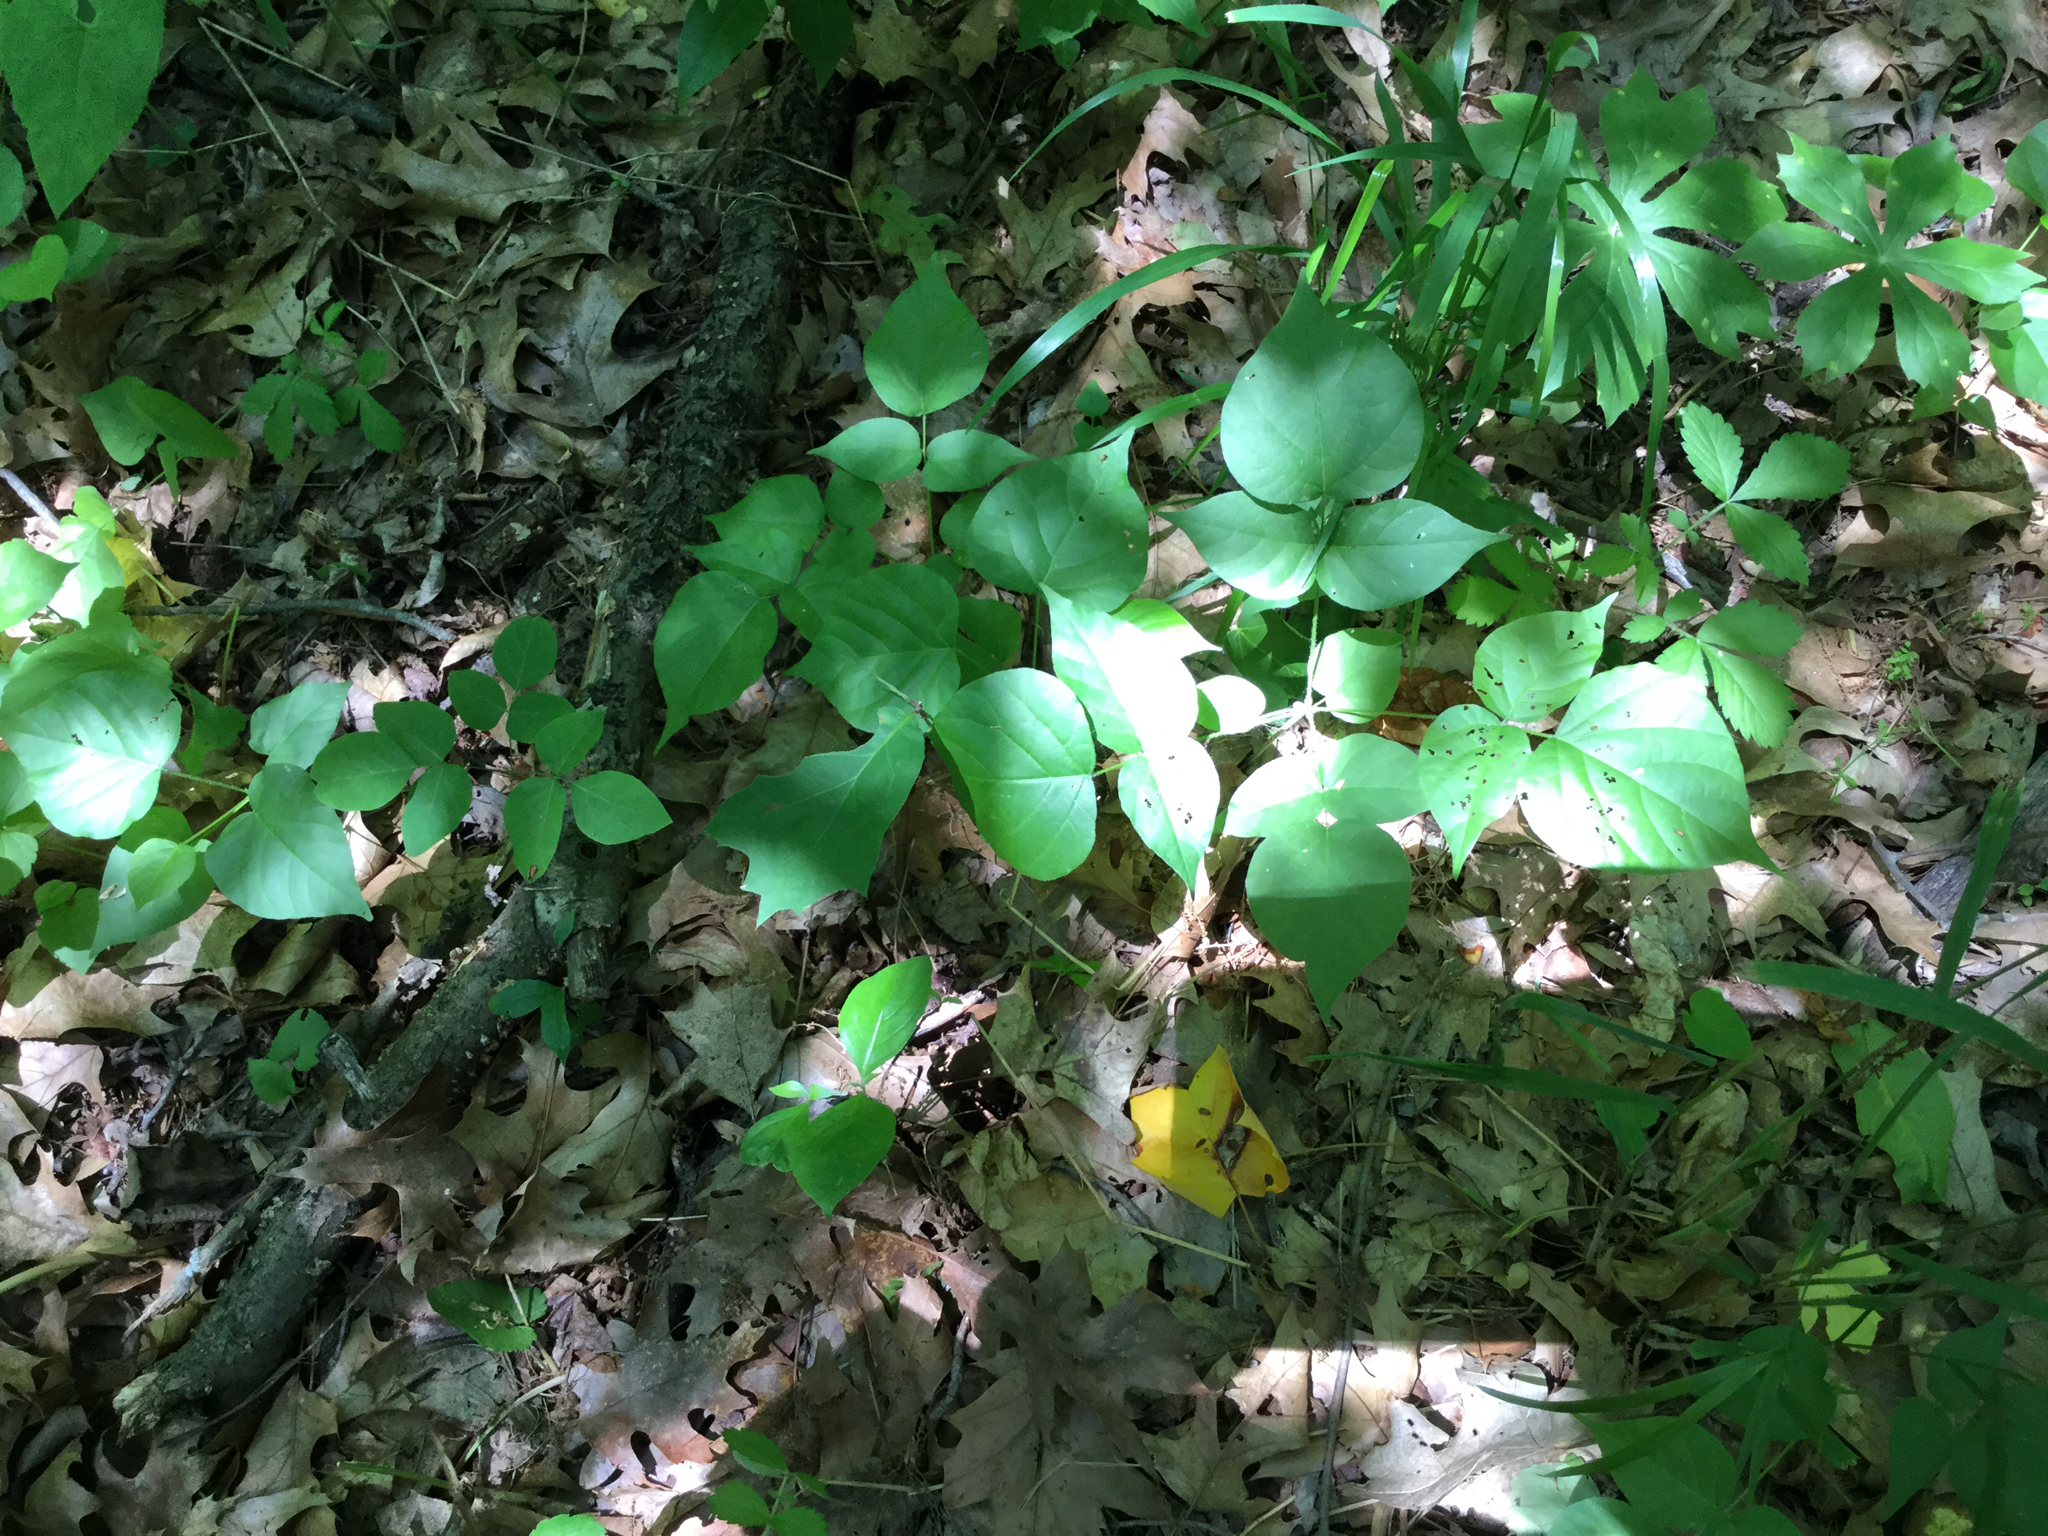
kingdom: Plantae
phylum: Tracheophyta
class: Magnoliopsida
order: Fabales
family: Fabaceae
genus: Hylodesmum
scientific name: Hylodesmum glutinosum
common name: Clustered-leaved tick-trefoil
